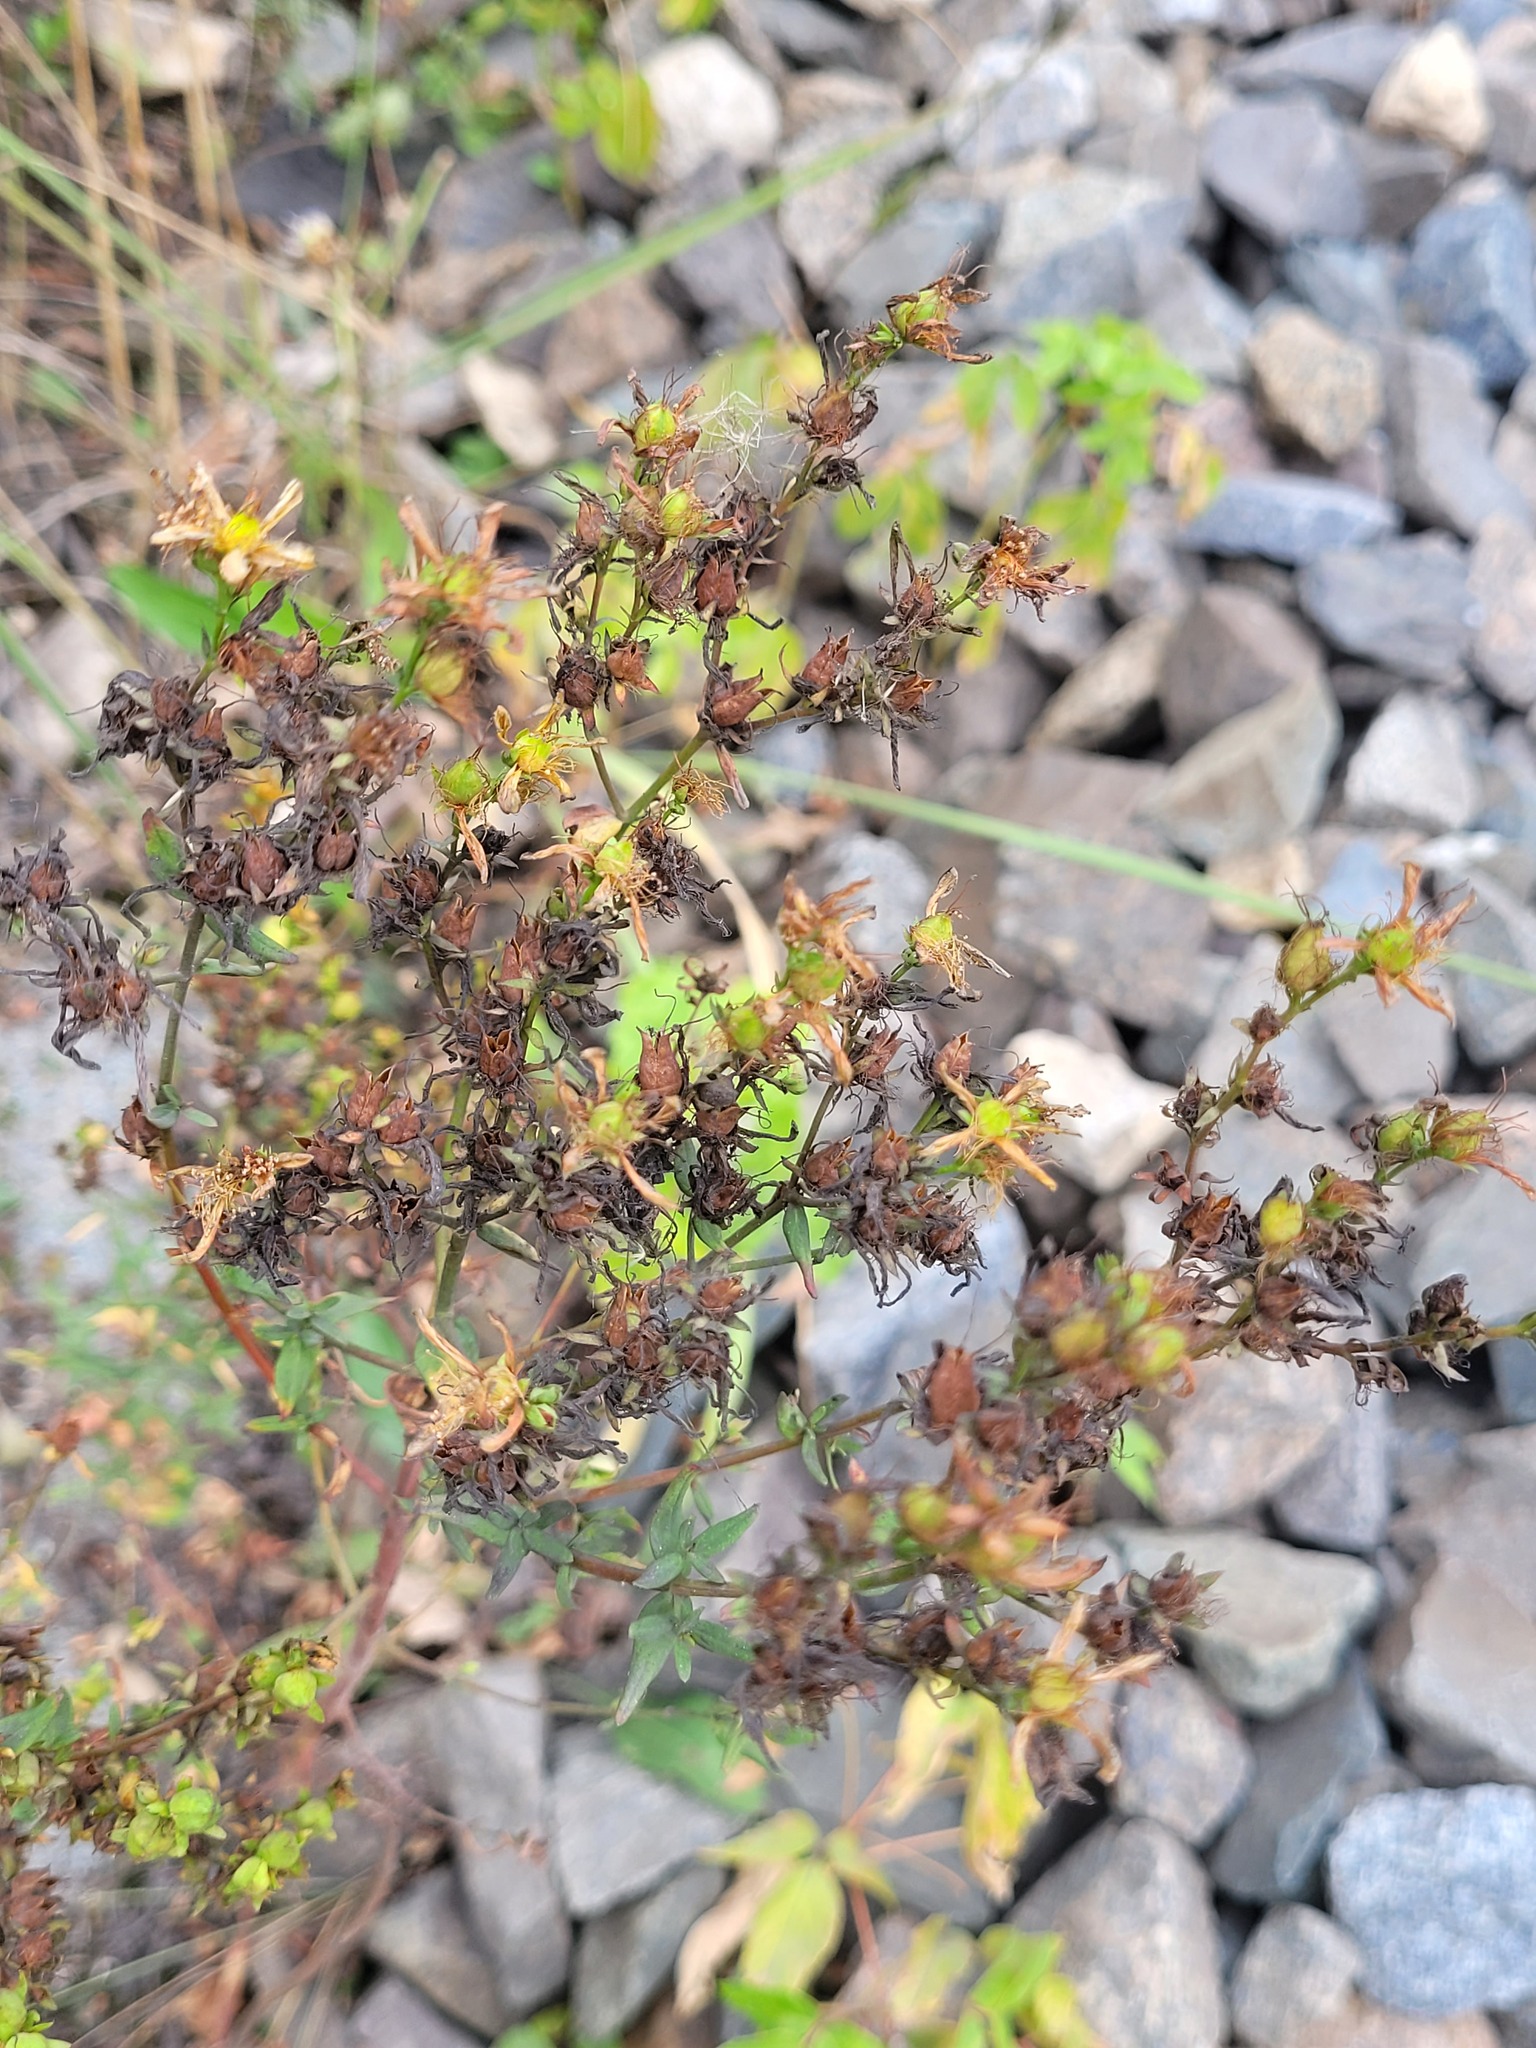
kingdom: Plantae
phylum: Tracheophyta
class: Magnoliopsida
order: Malpighiales
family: Hypericaceae
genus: Hypericum
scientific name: Hypericum perforatum
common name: Common st. johnswort
